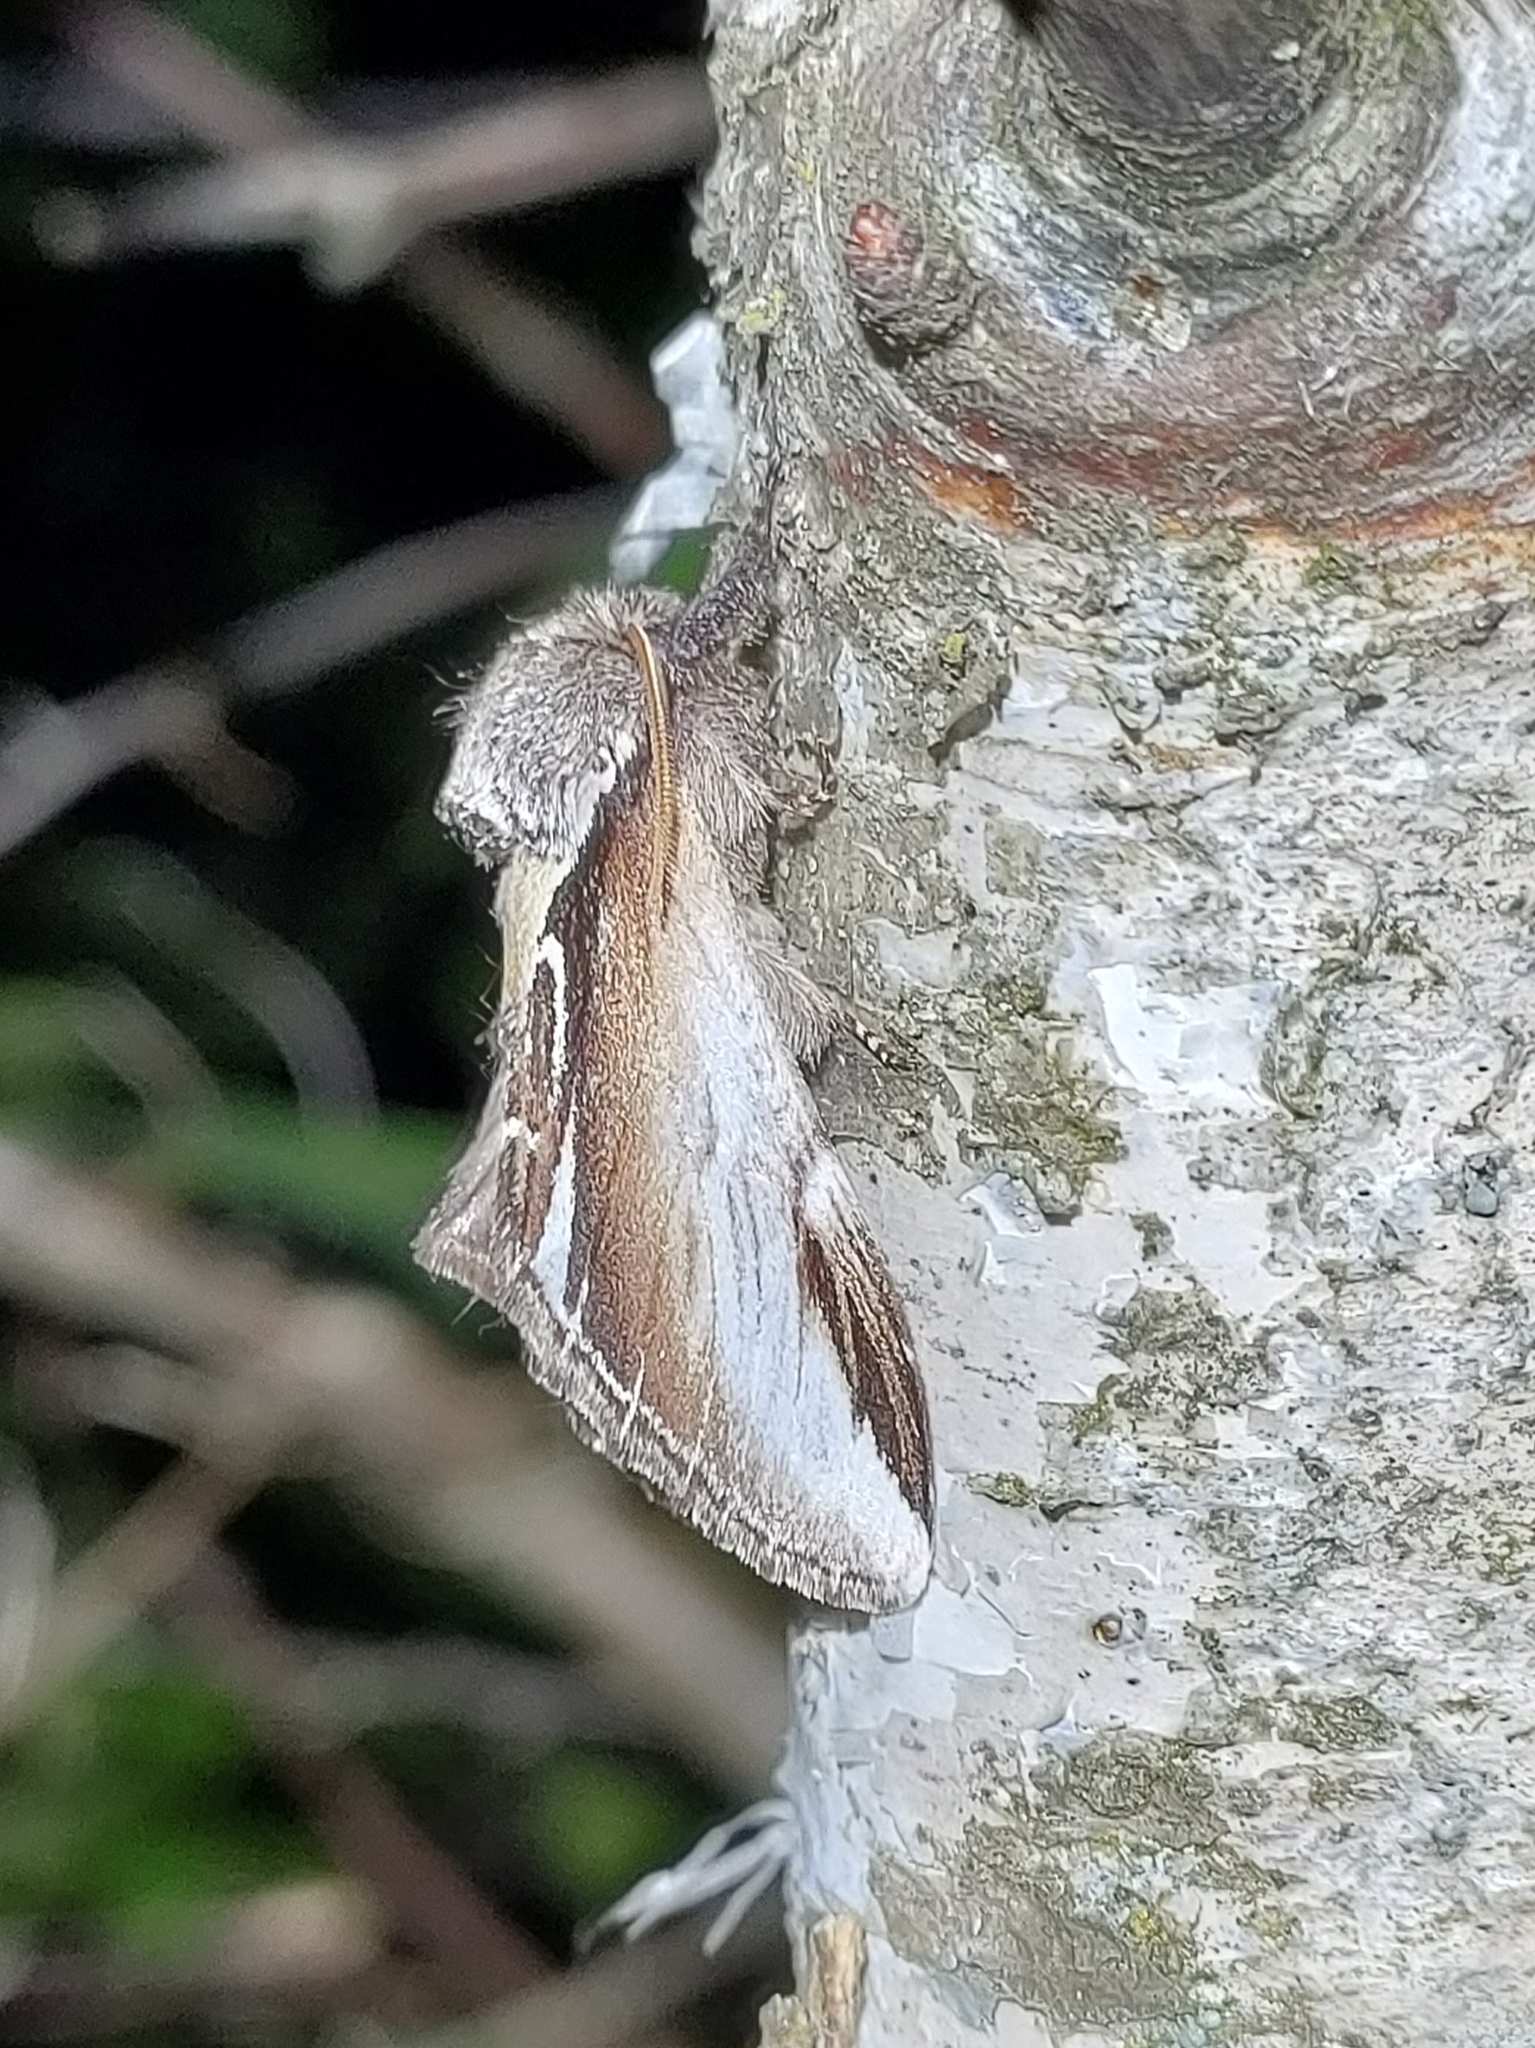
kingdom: Animalia
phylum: Arthropoda
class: Insecta
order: Lepidoptera
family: Notodontidae
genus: Pheosia
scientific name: Pheosia gnoma
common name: Lesser swallow prominent
